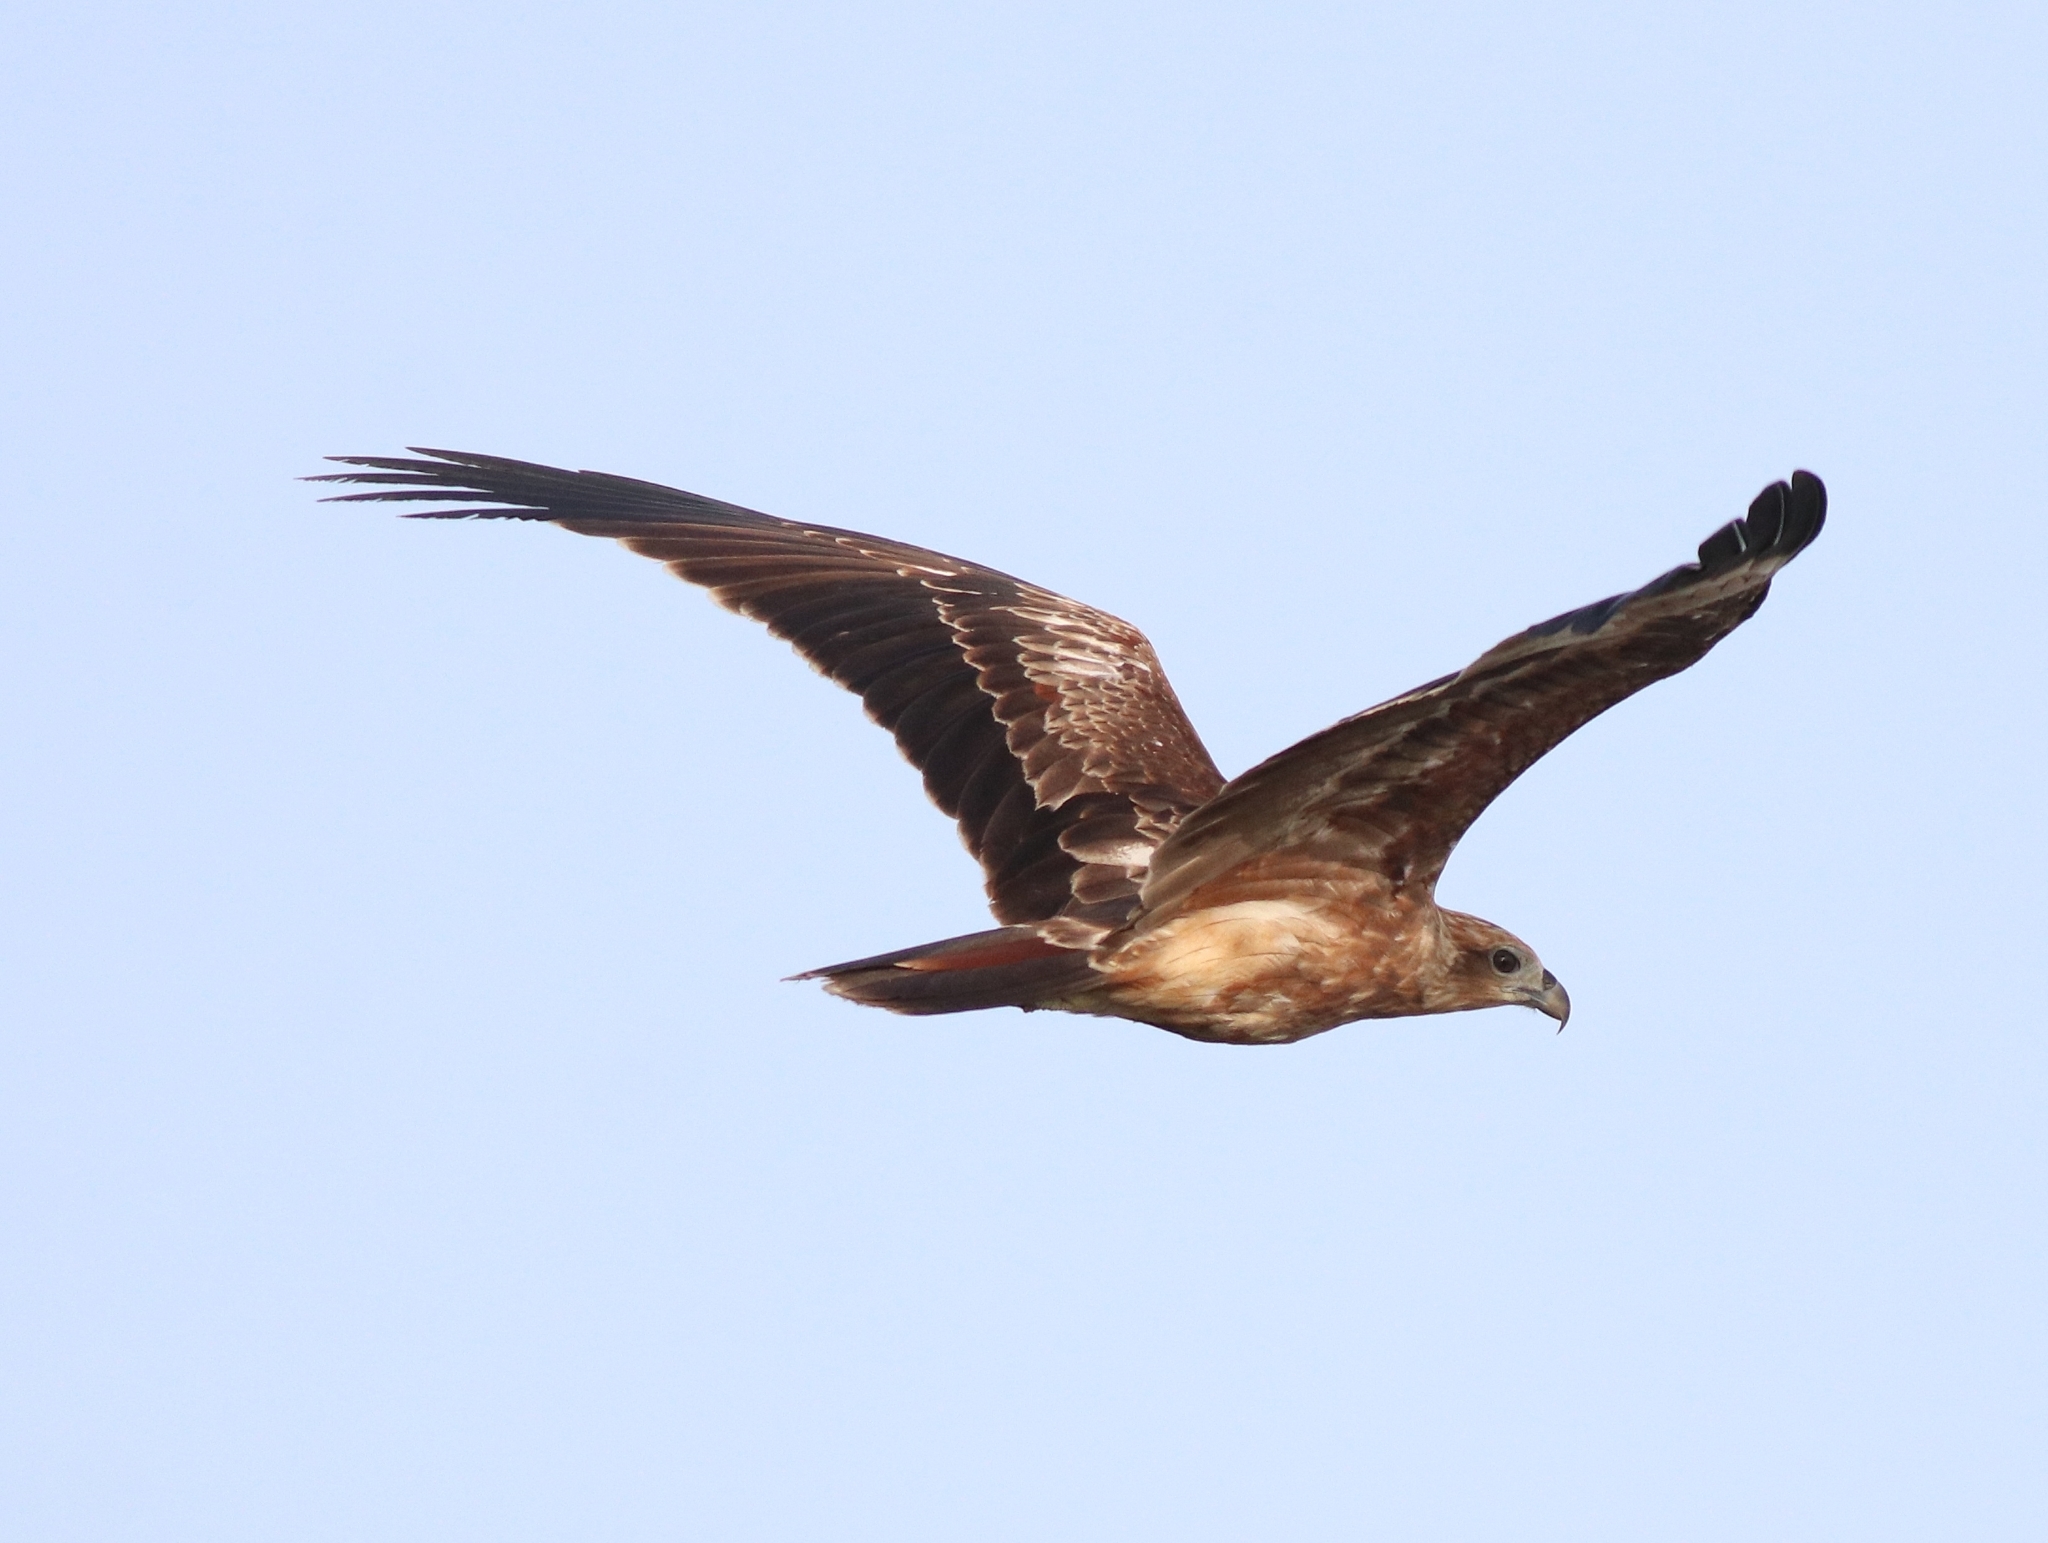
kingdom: Animalia
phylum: Chordata
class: Aves
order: Accipitriformes
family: Accipitridae
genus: Haliastur
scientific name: Haliastur indus
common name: Brahminy kite
